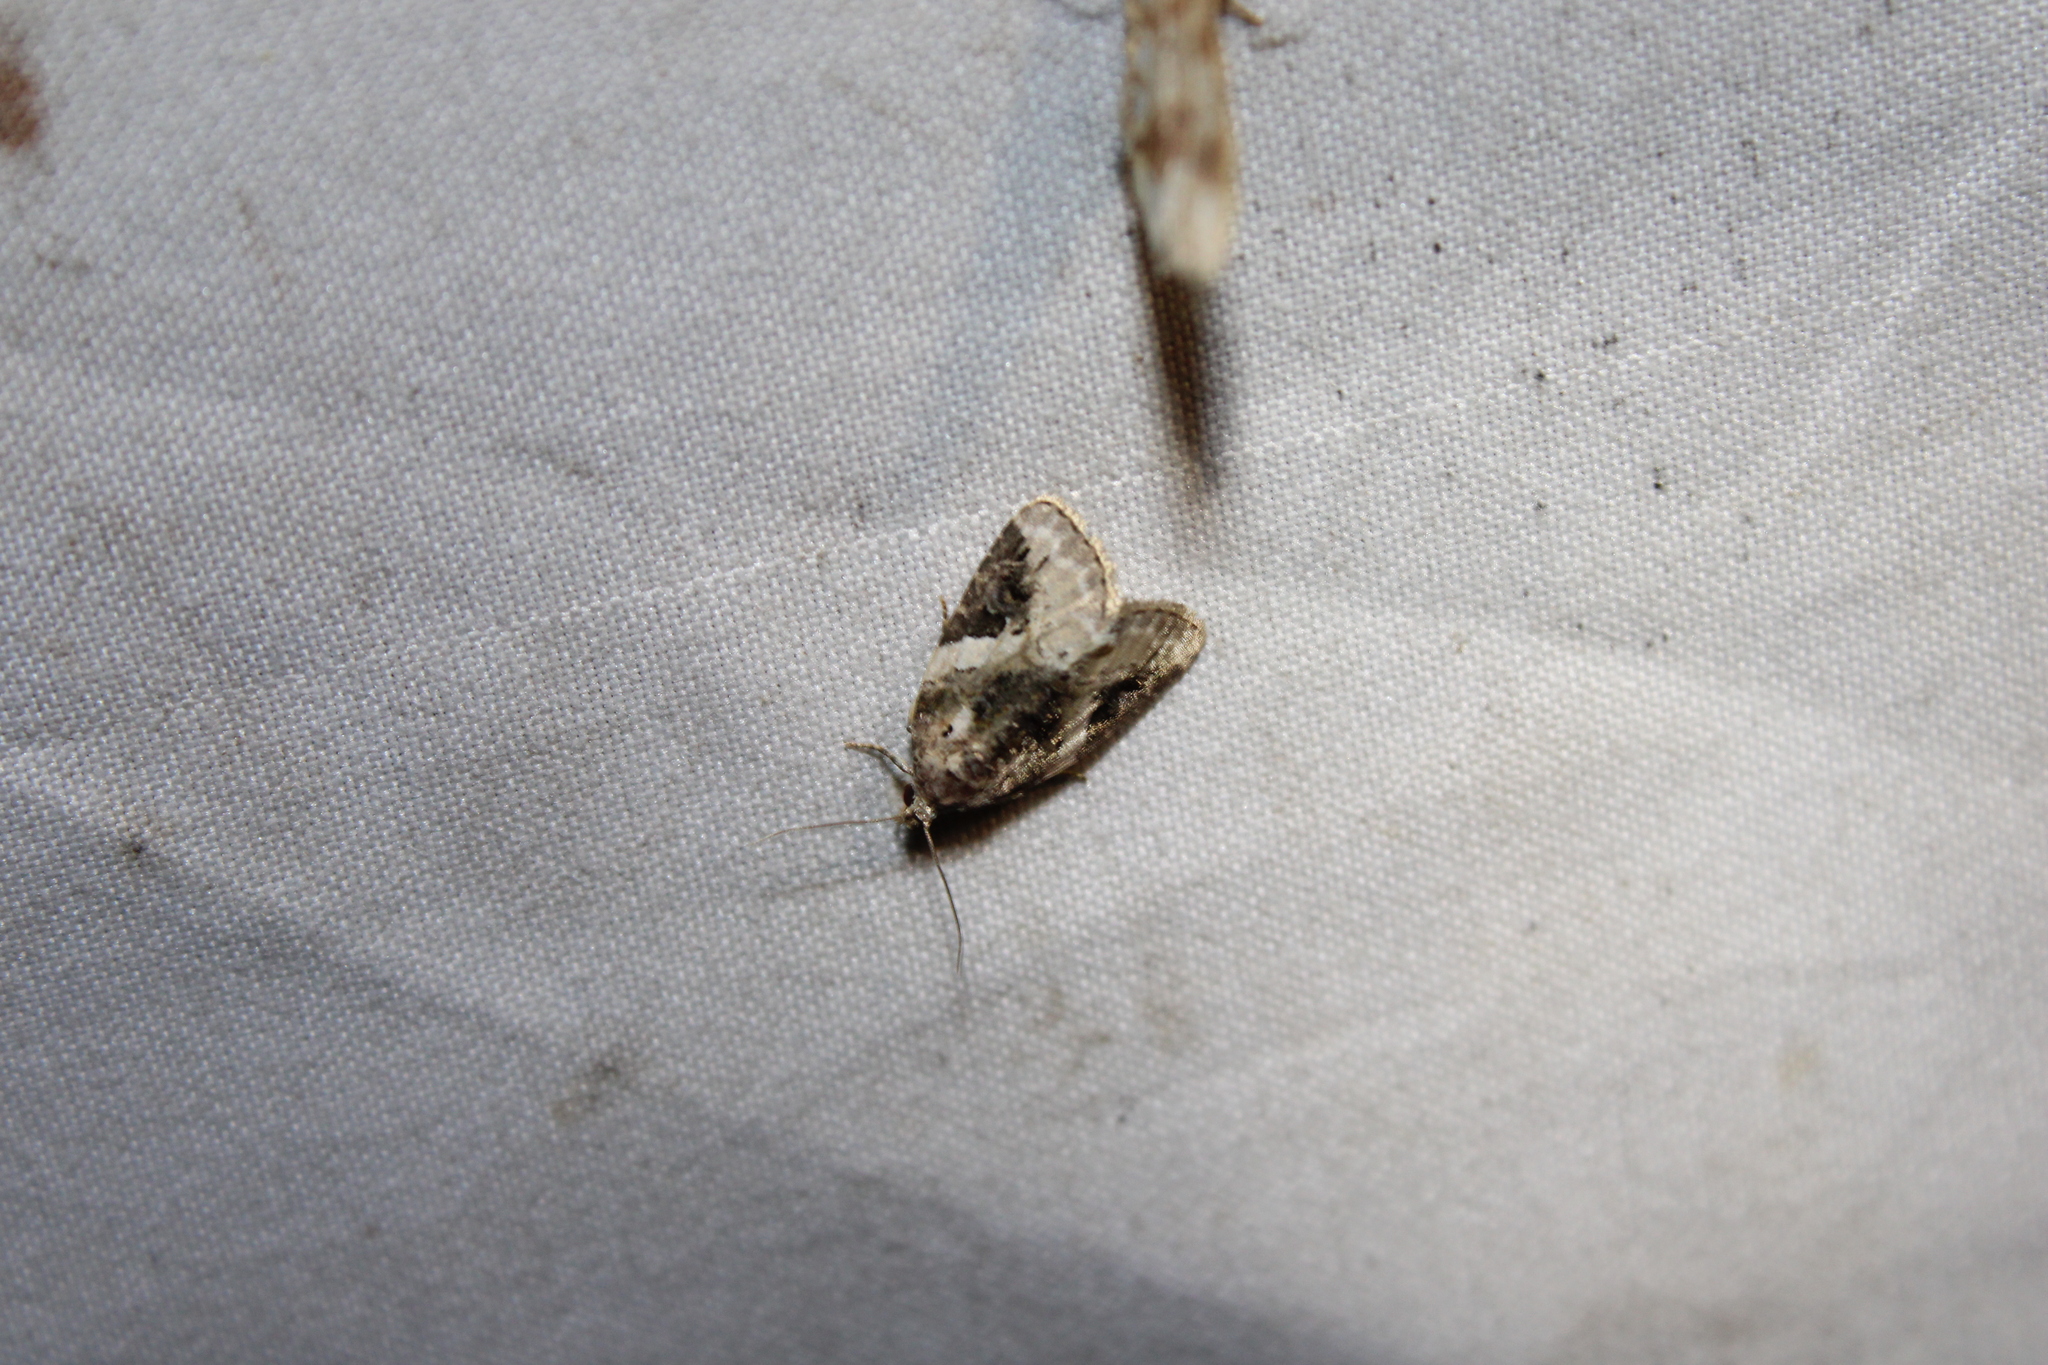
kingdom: Animalia
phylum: Arthropoda
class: Insecta
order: Lepidoptera
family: Noctuidae
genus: Pseudeustrotia
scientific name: Pseudeustrotia carneola
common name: Pink-barred lithacodia moth
